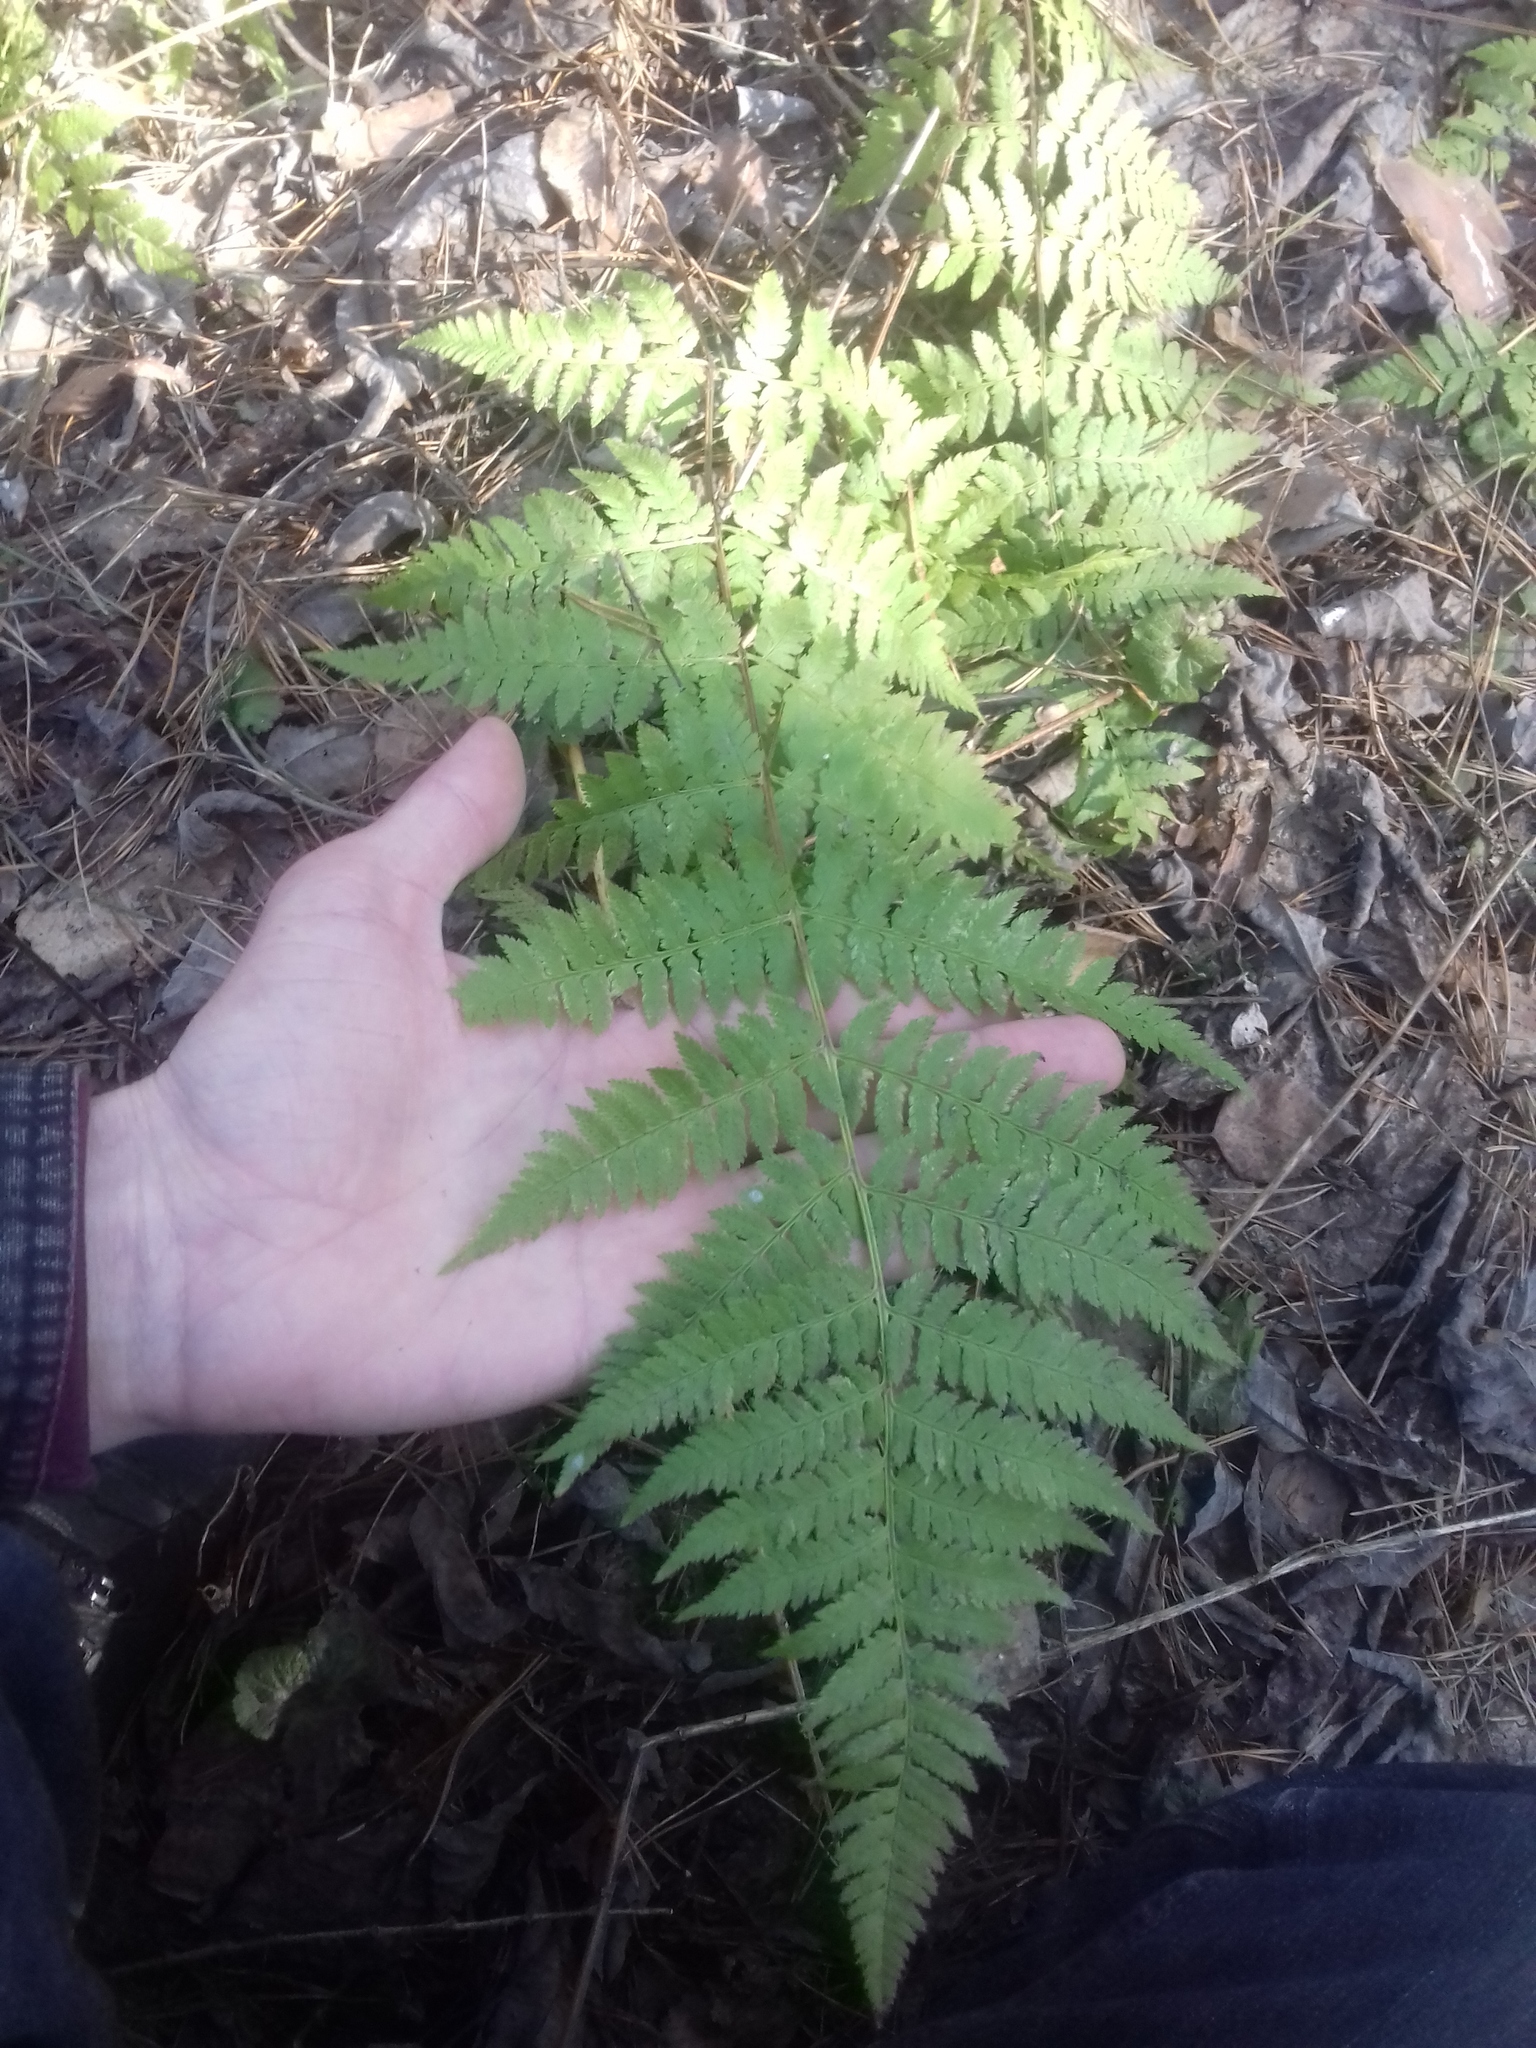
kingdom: Plantae
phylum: Tracheophyta
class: Polypodiopsida
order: Polypodiales
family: Dryopteridaceae
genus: Dryopteris
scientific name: Dryopteris carthusiana
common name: Narrow buckler-fern
